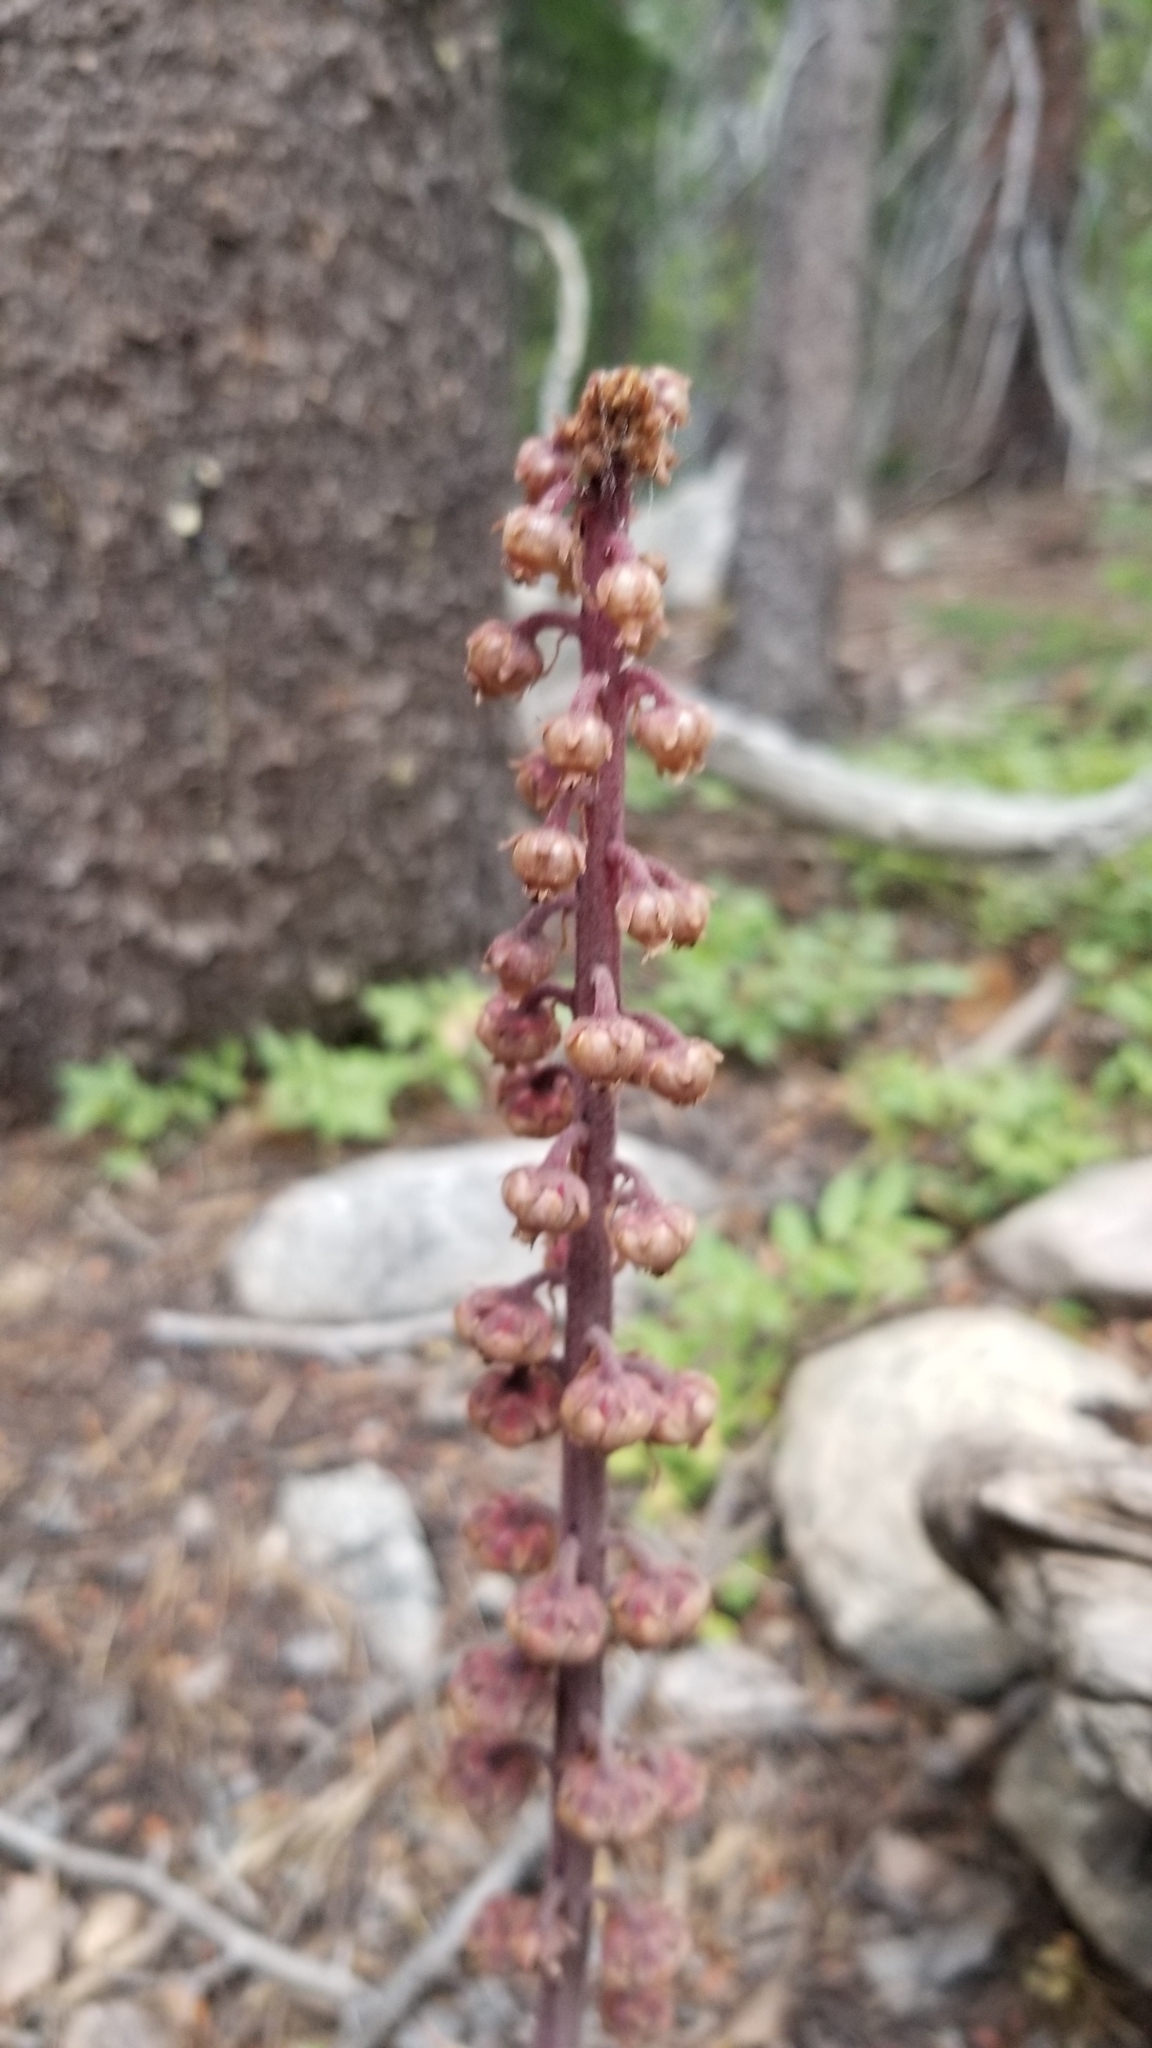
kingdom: Plantae
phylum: Tracheophyta
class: Magnoliopsida
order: Ericales
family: Ericaceae
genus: Pterospora
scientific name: Pterospora andromedea
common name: Giant bird's-nest
